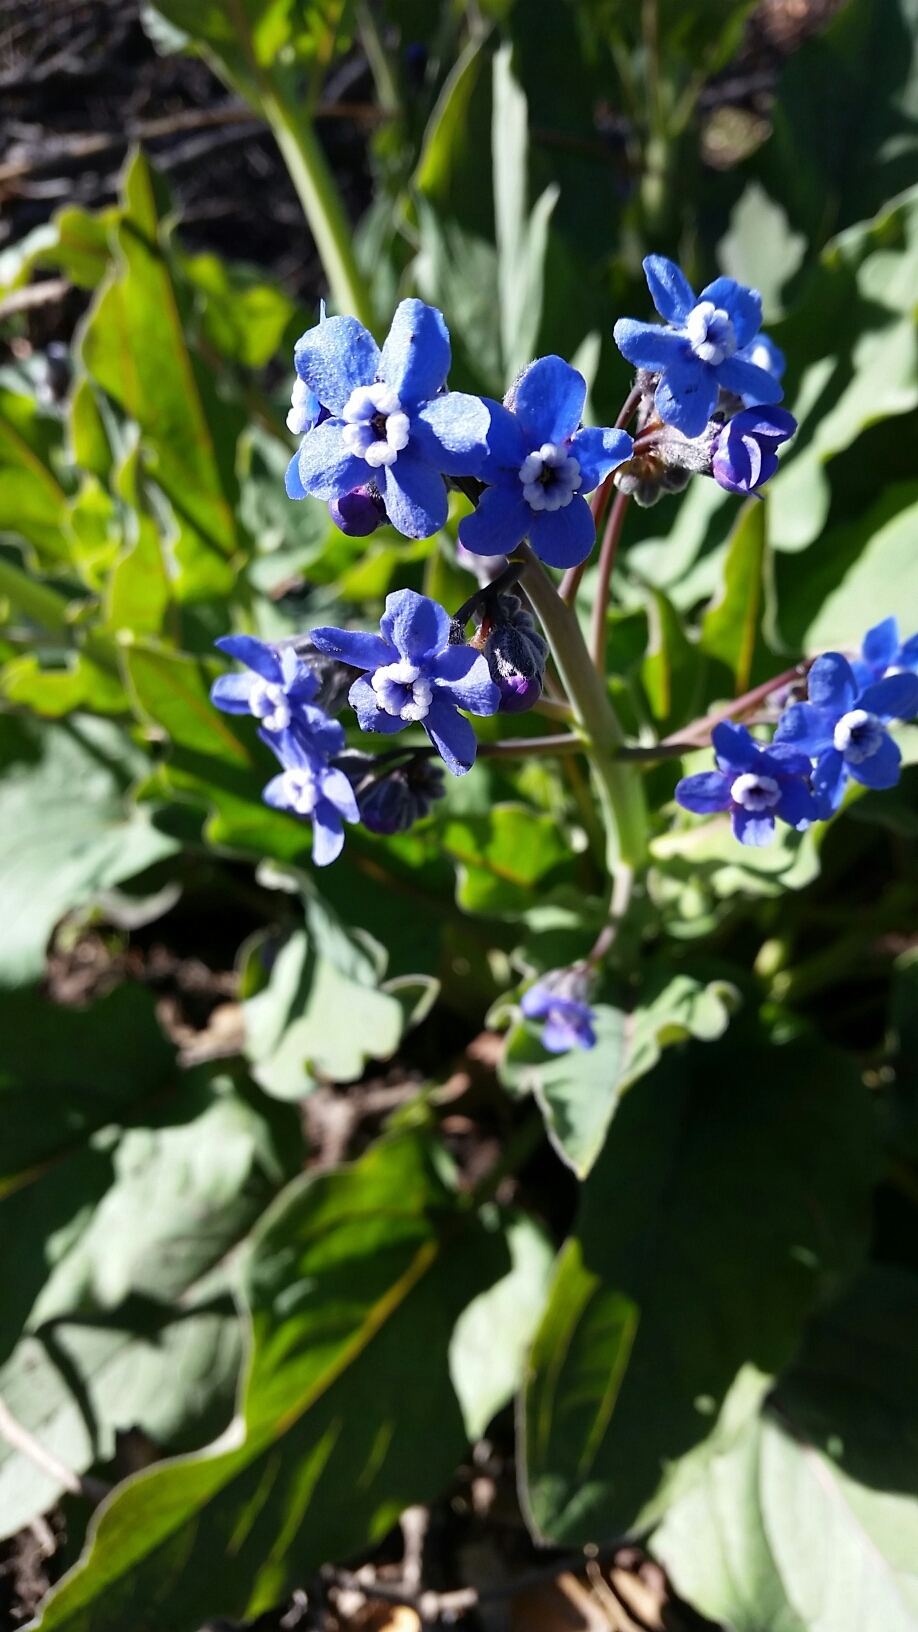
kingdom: Plantae
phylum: Tracheophyta
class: Magnoliopsida
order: Boraginales
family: Boraginaceae
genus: Adelinia
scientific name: Adelinia grande
